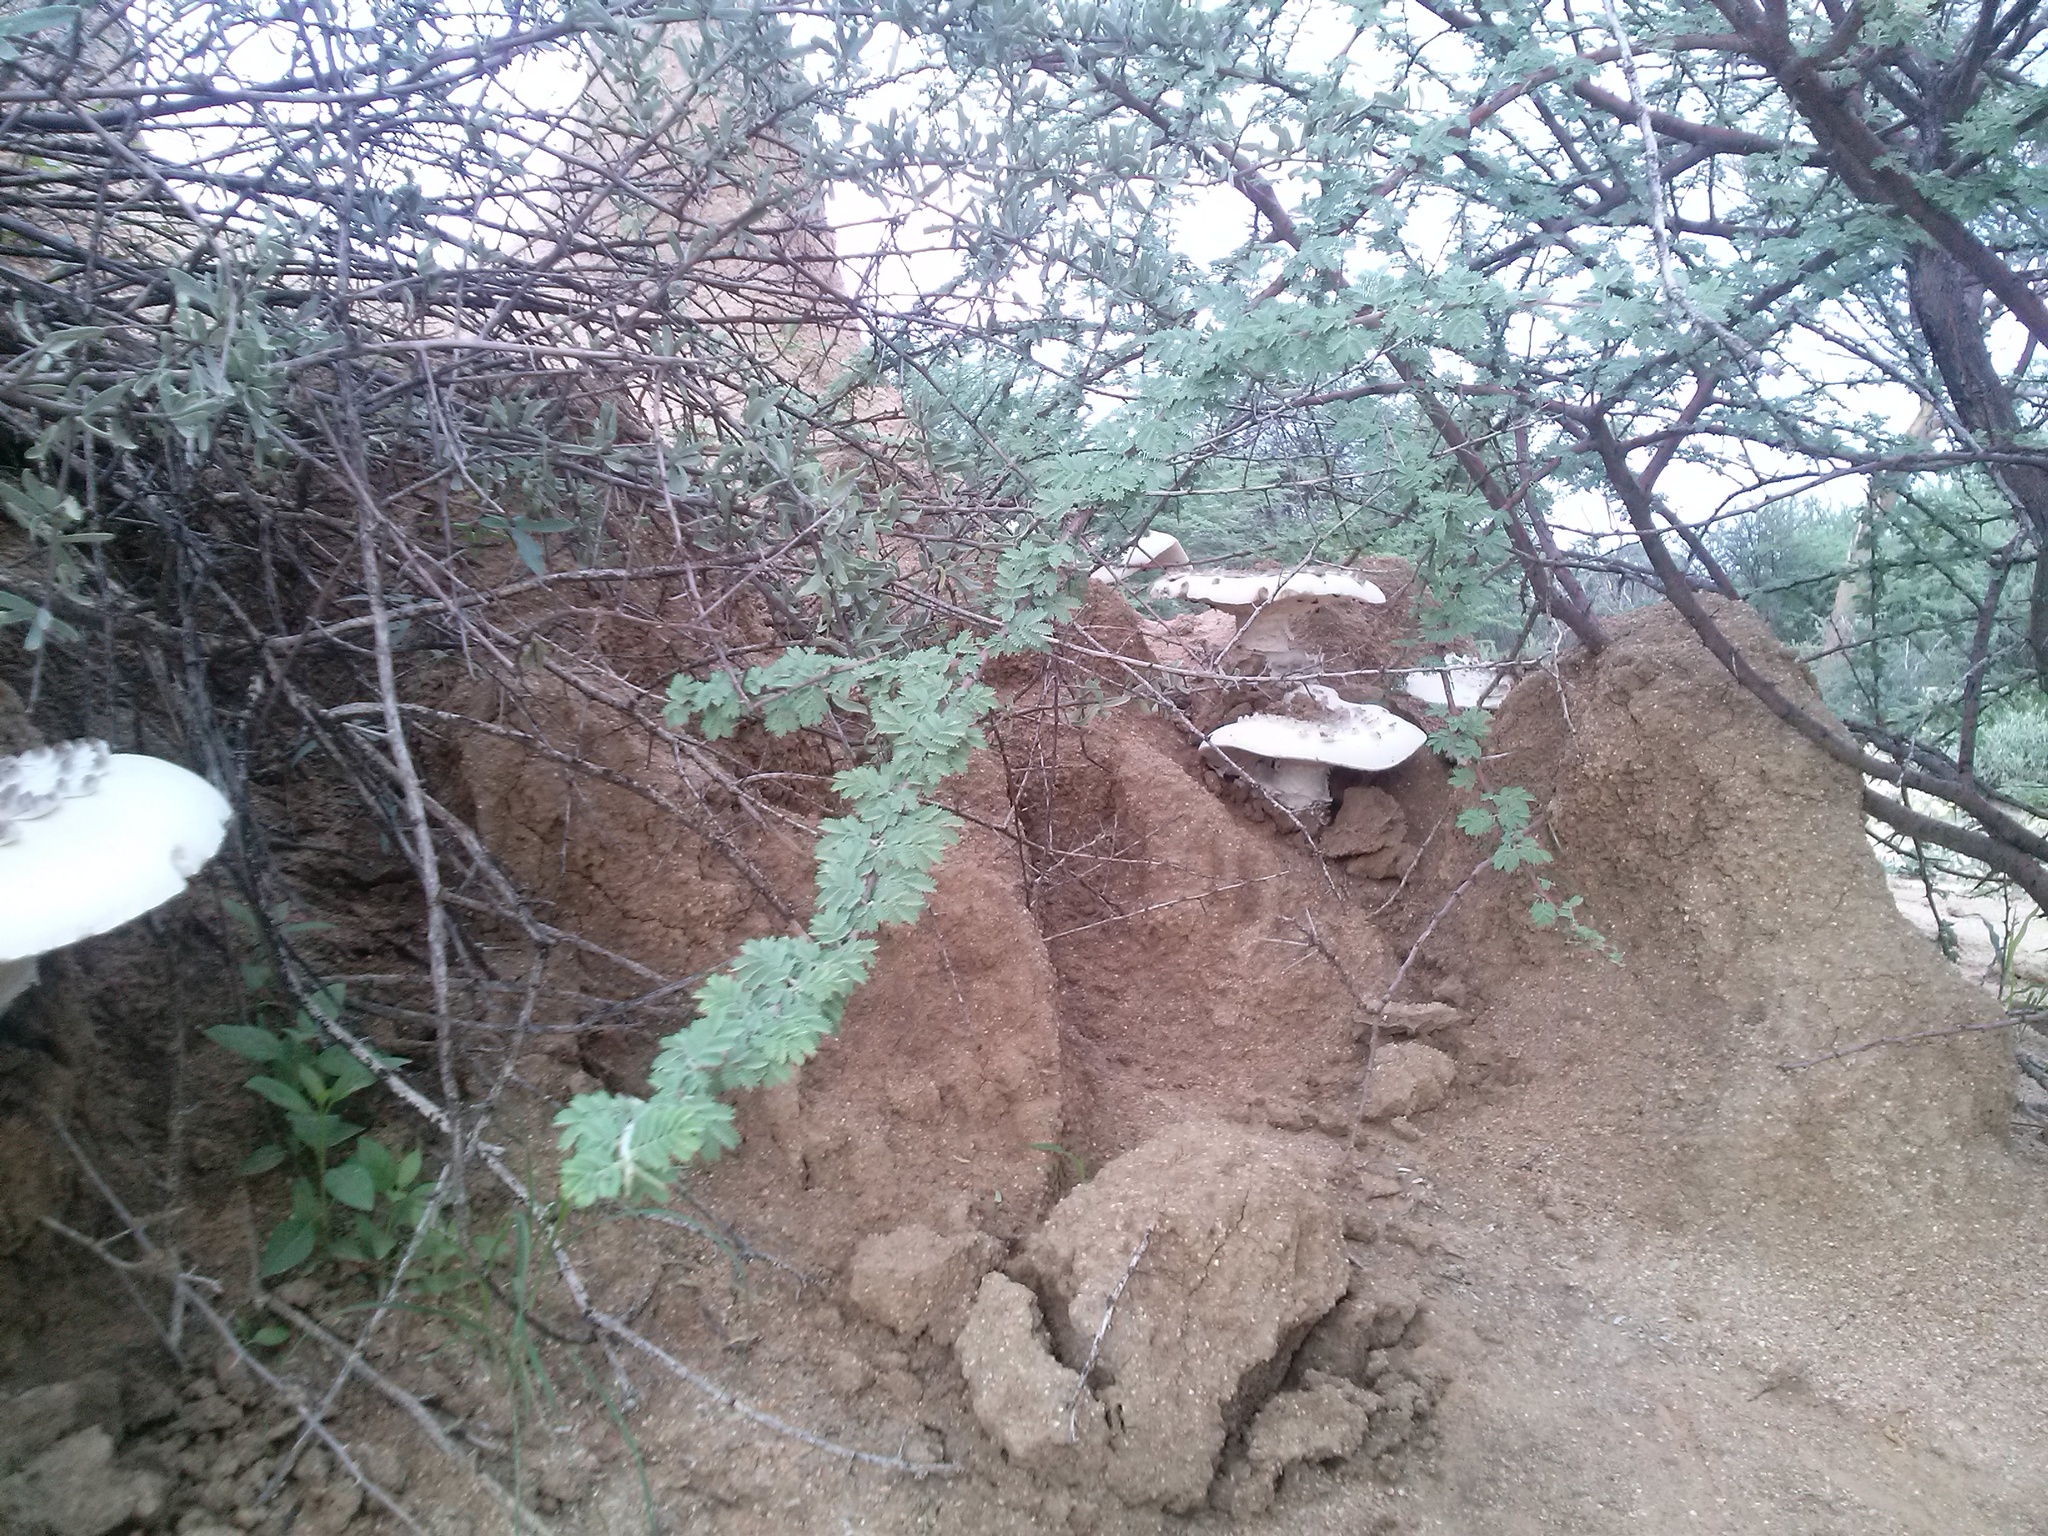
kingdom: Fungi
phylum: Basidiomycota
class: Agaricomycetes
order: Agaricales
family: Lyophyllaceae
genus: Termitomyces
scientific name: Termitomyces schimperi
